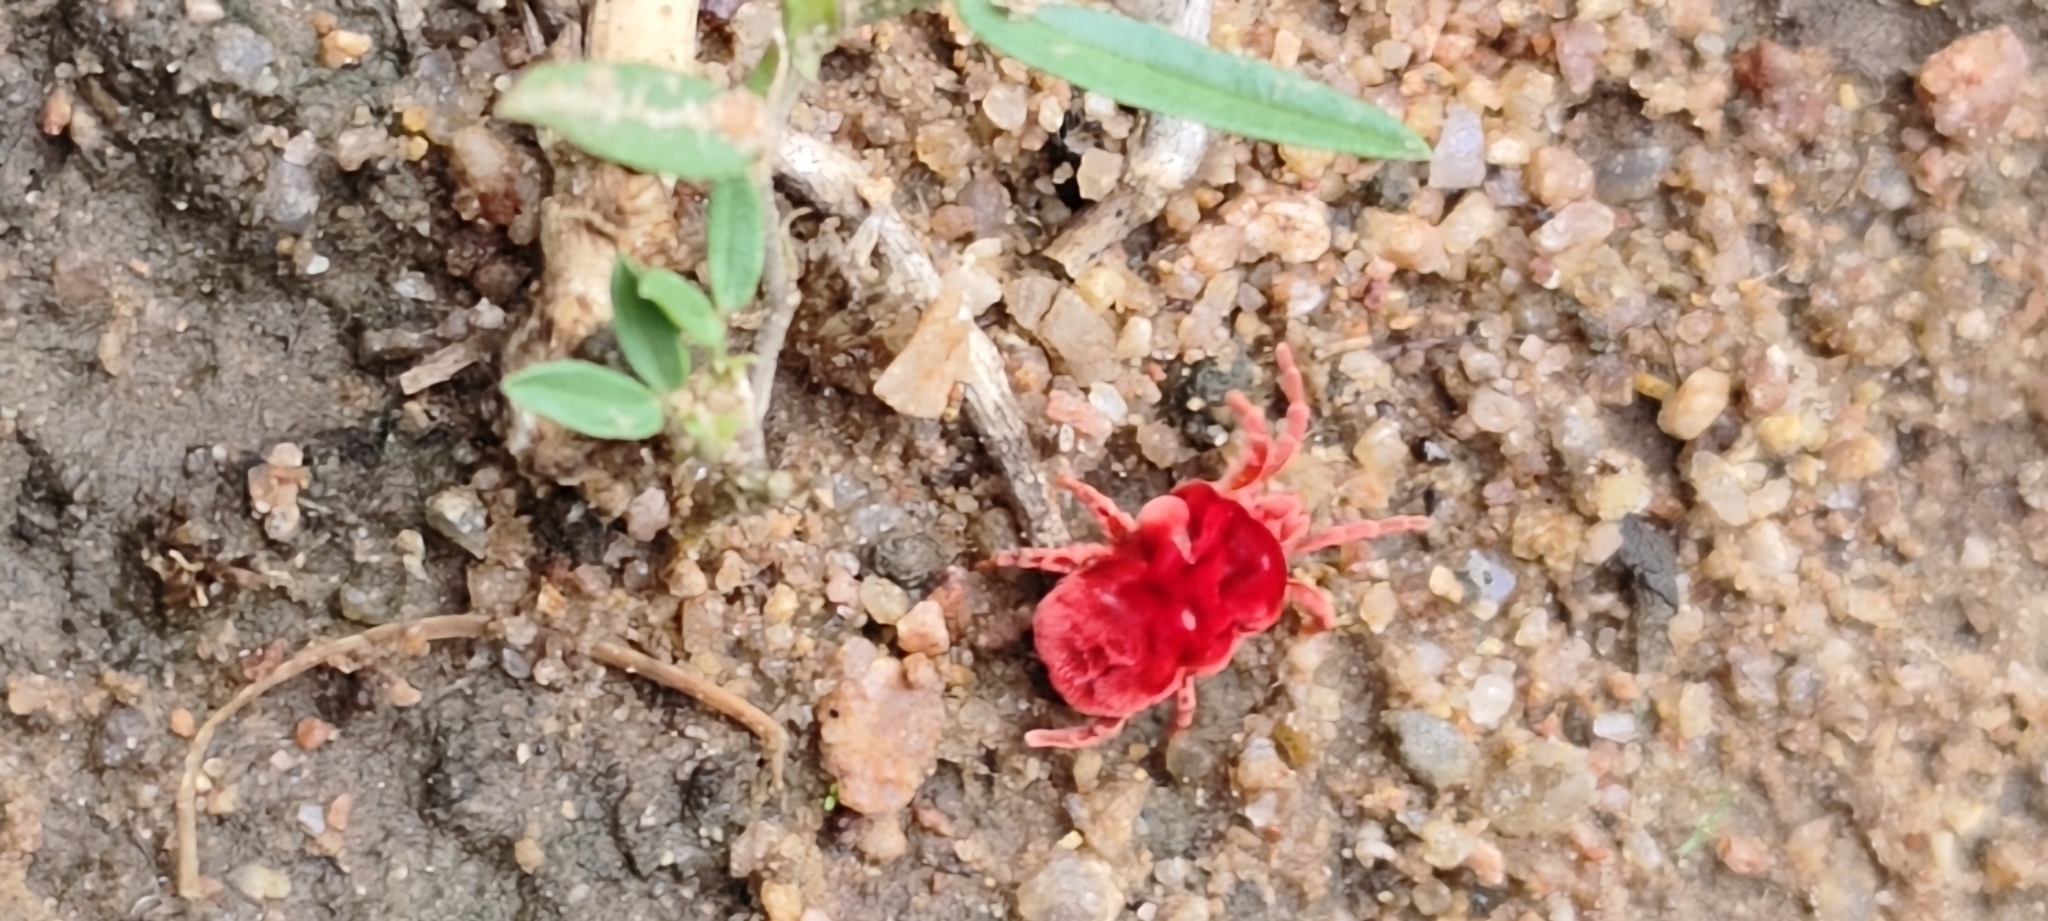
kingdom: Animalia
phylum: Arthropoda
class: Arachnida
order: Trombidiformes
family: Leeuwenhoekiidae
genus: Dinothrombium
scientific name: Dinothrombium
